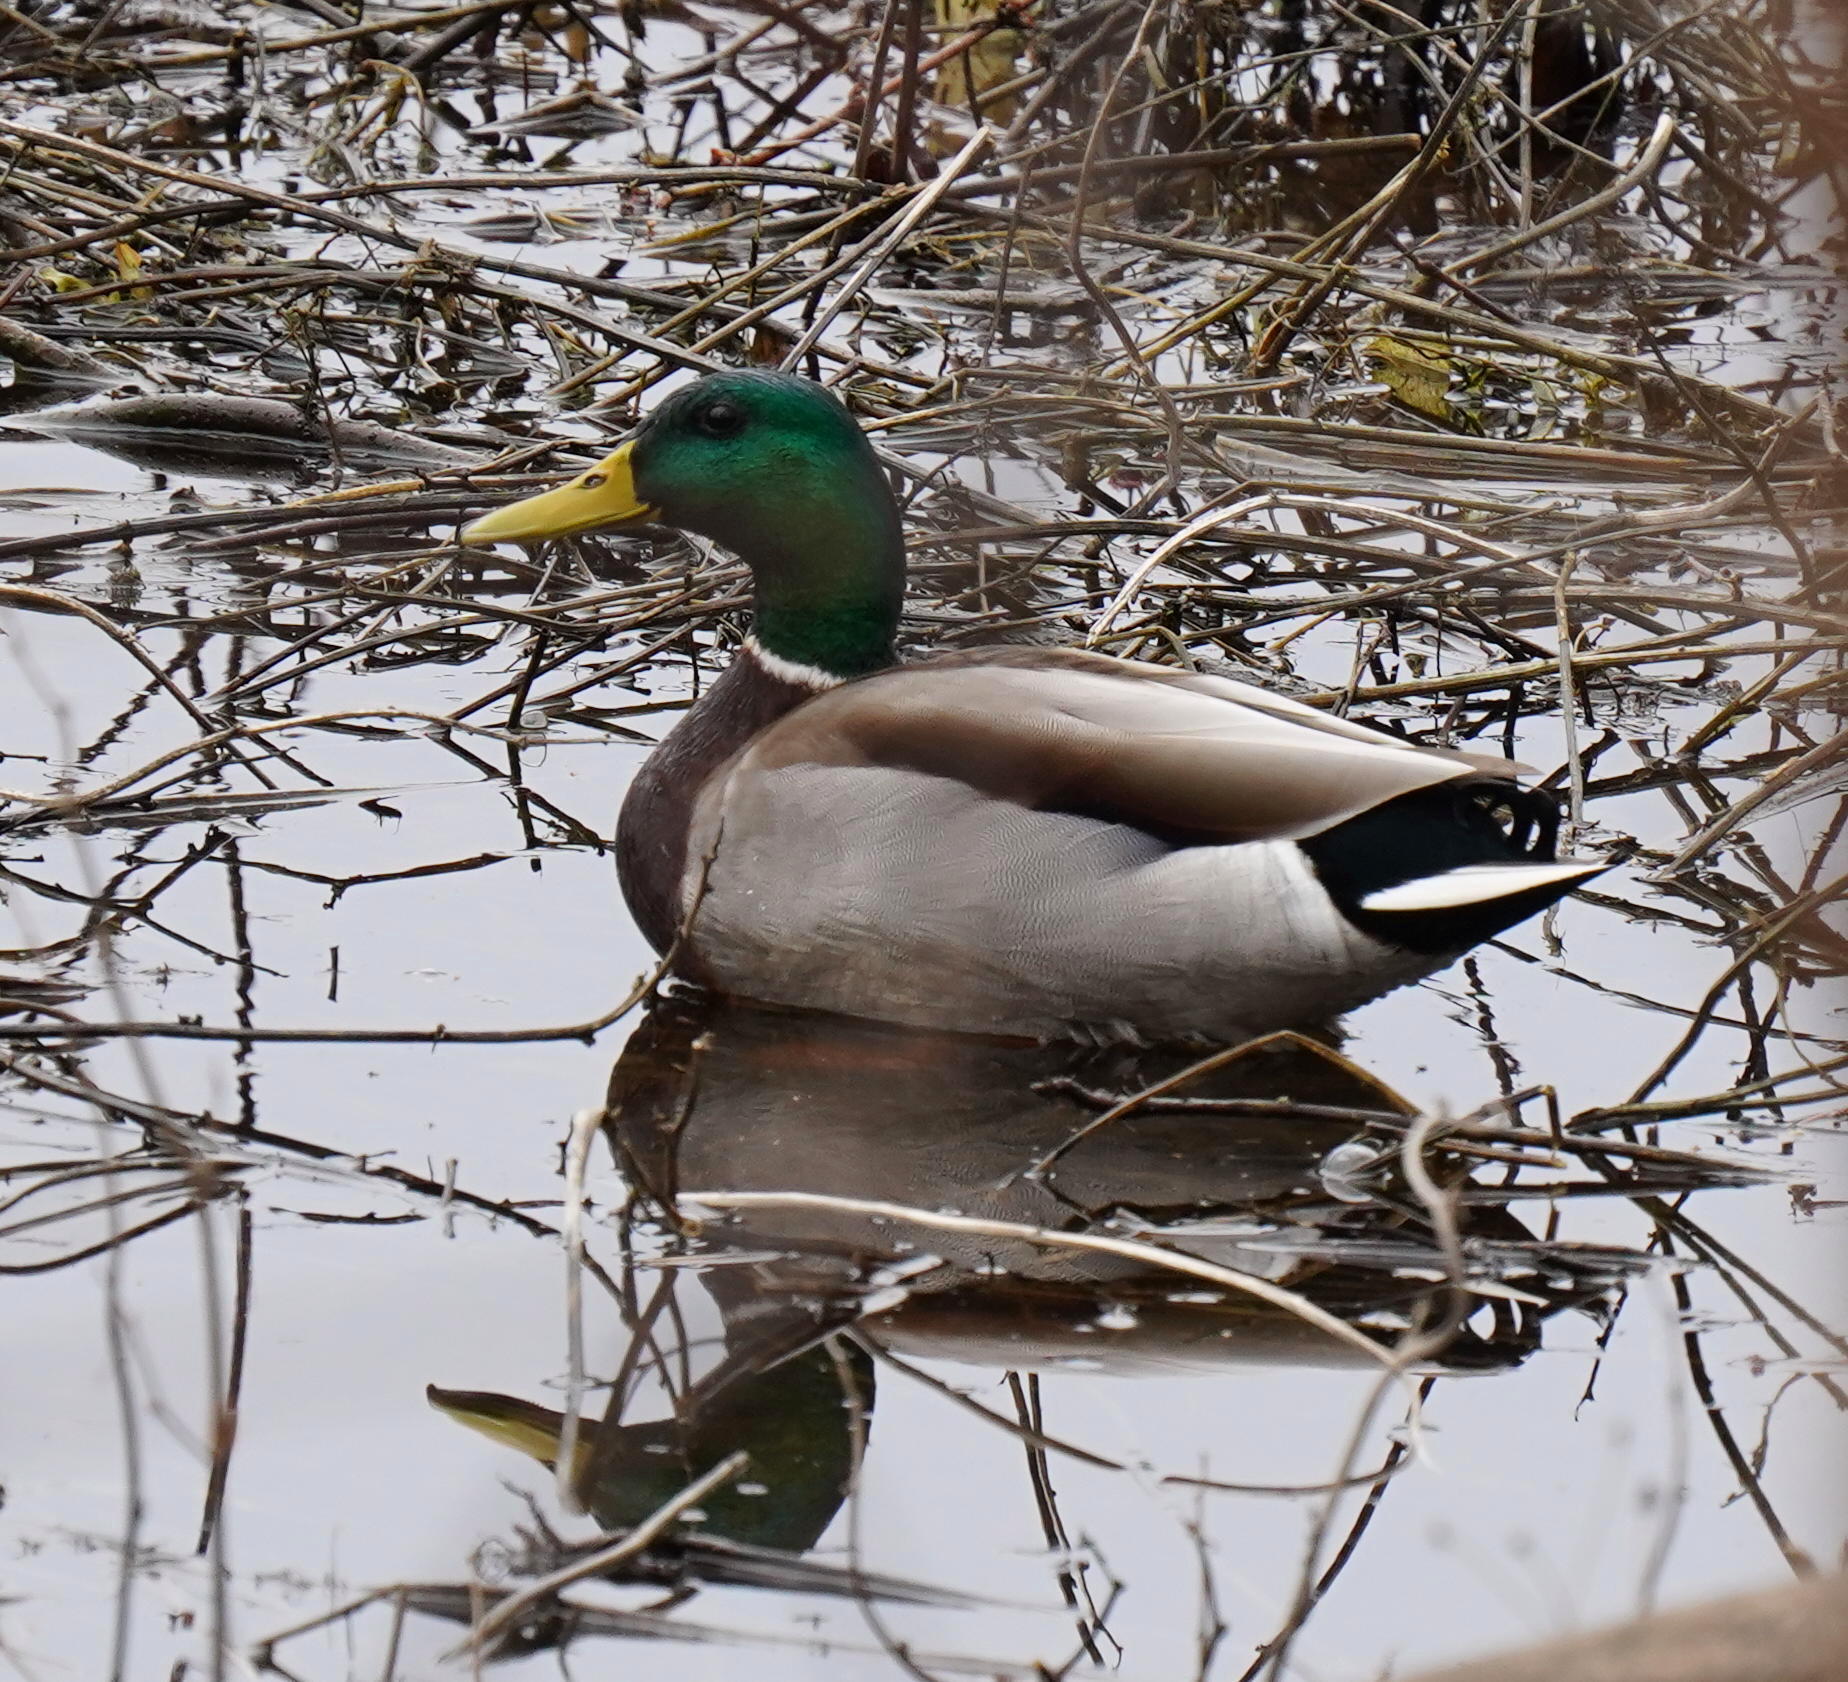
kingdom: Animalia
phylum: Chordata
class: Aves
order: Anseriformes
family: Anatidae
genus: Anas
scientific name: Anas platyrhynchos
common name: Mallard
